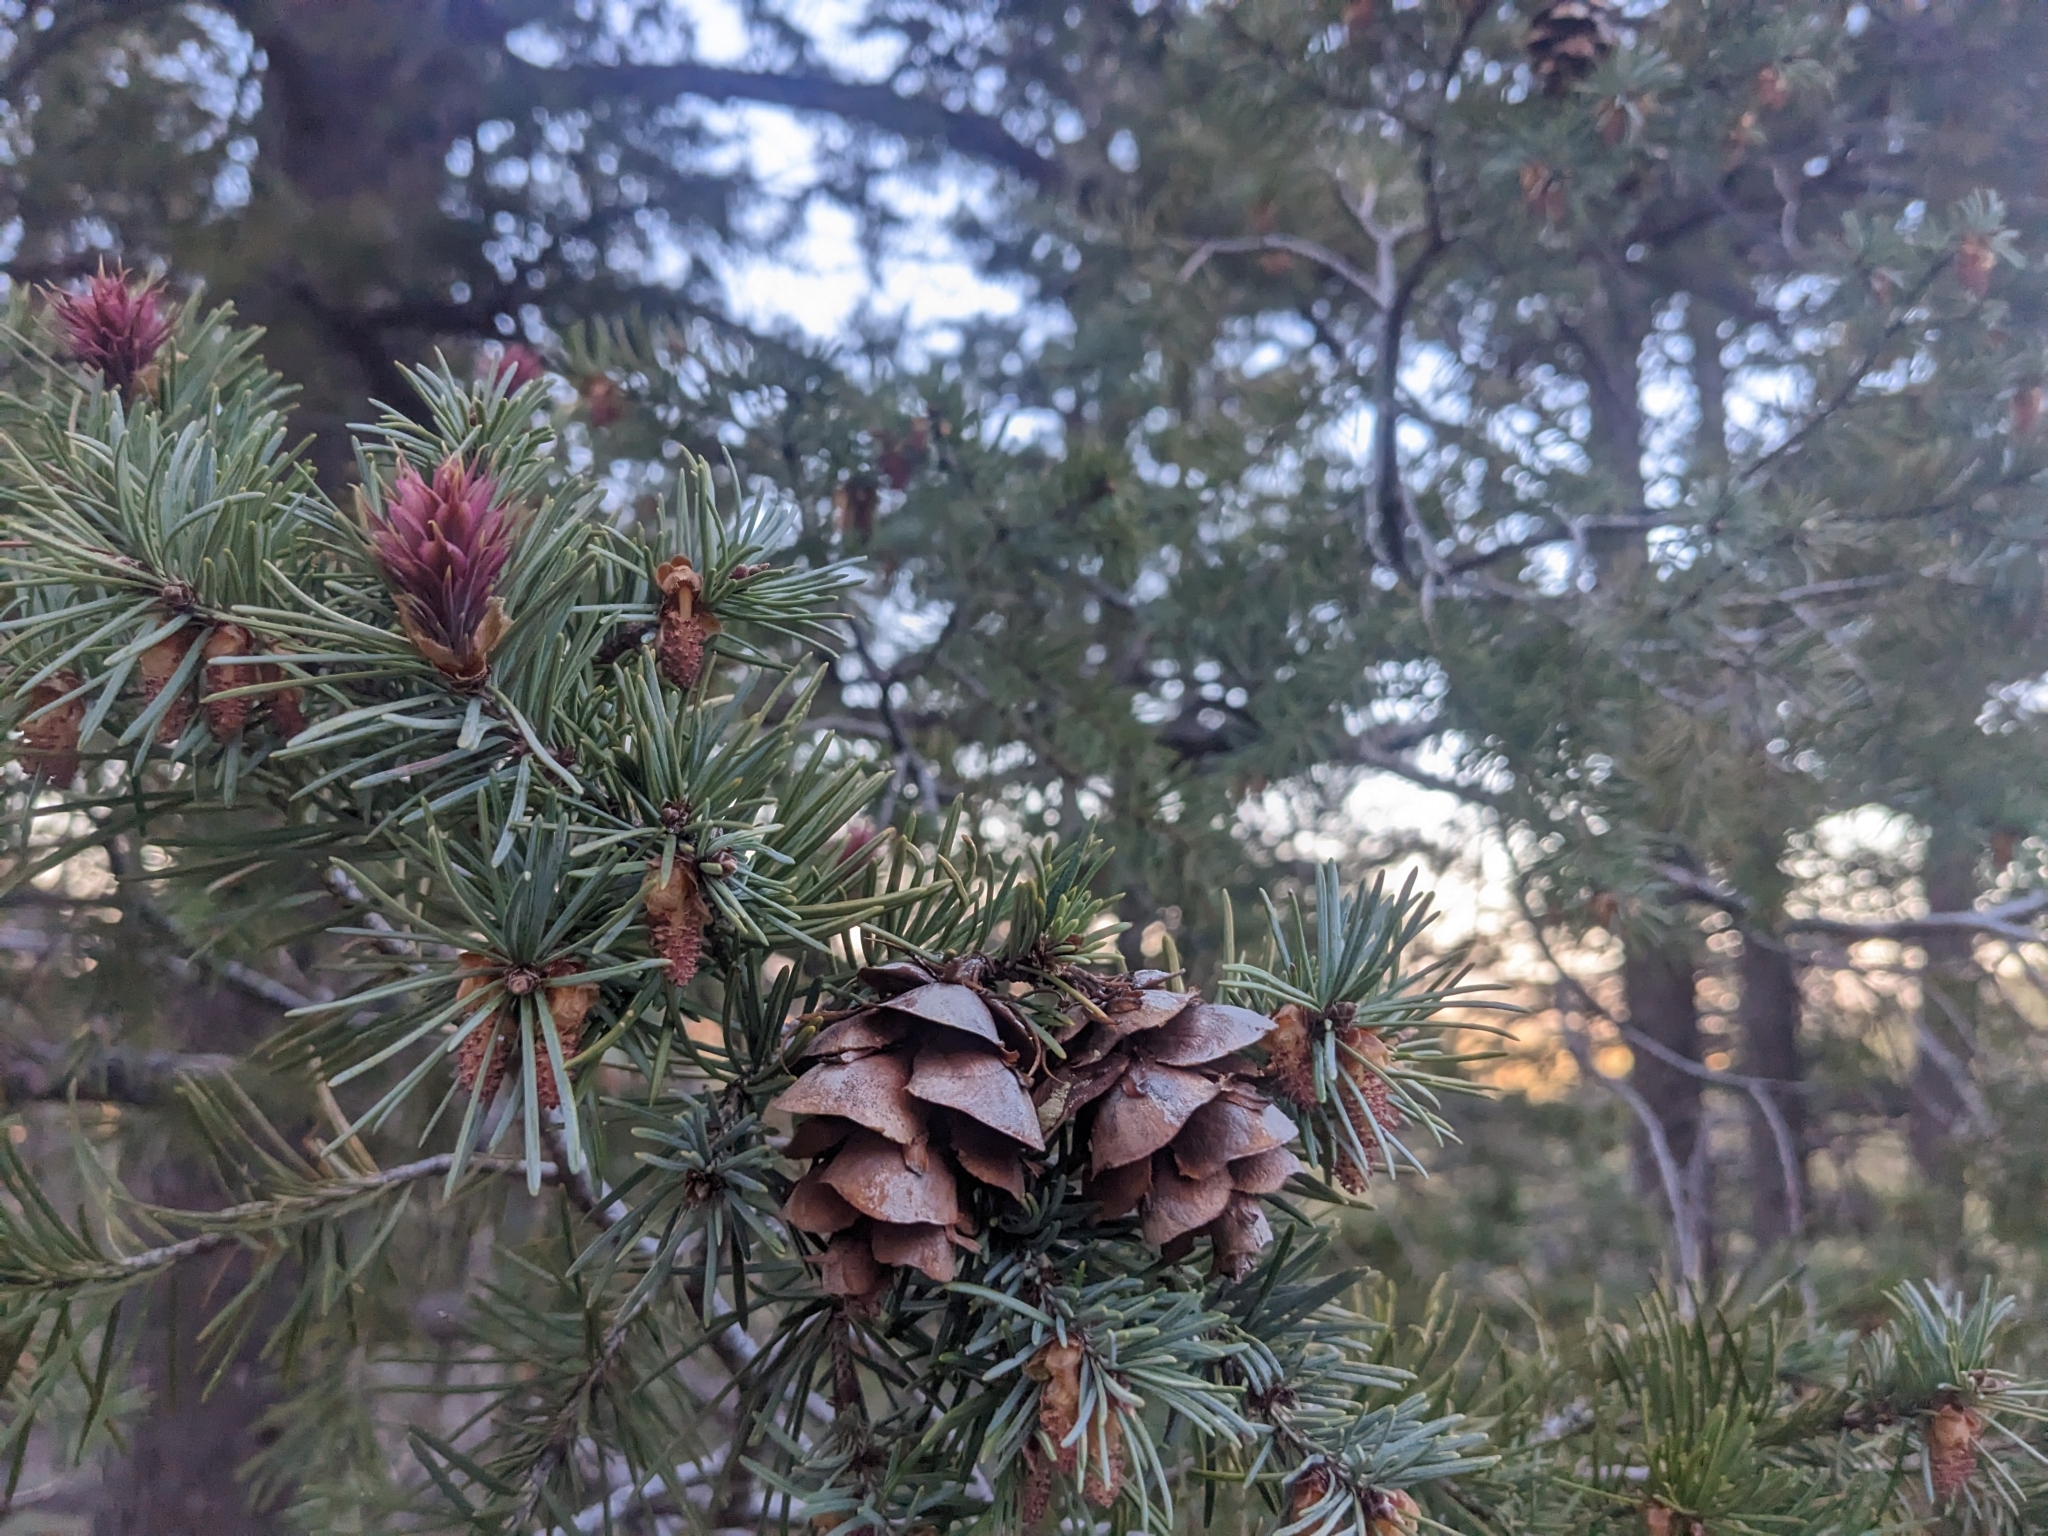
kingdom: Plantae
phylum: Tracheophyta
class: Pinopsida
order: Pinales
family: Pinaceae
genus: Pseudotsuga
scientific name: Pseudotsuga menziesii
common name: Douglas fir
